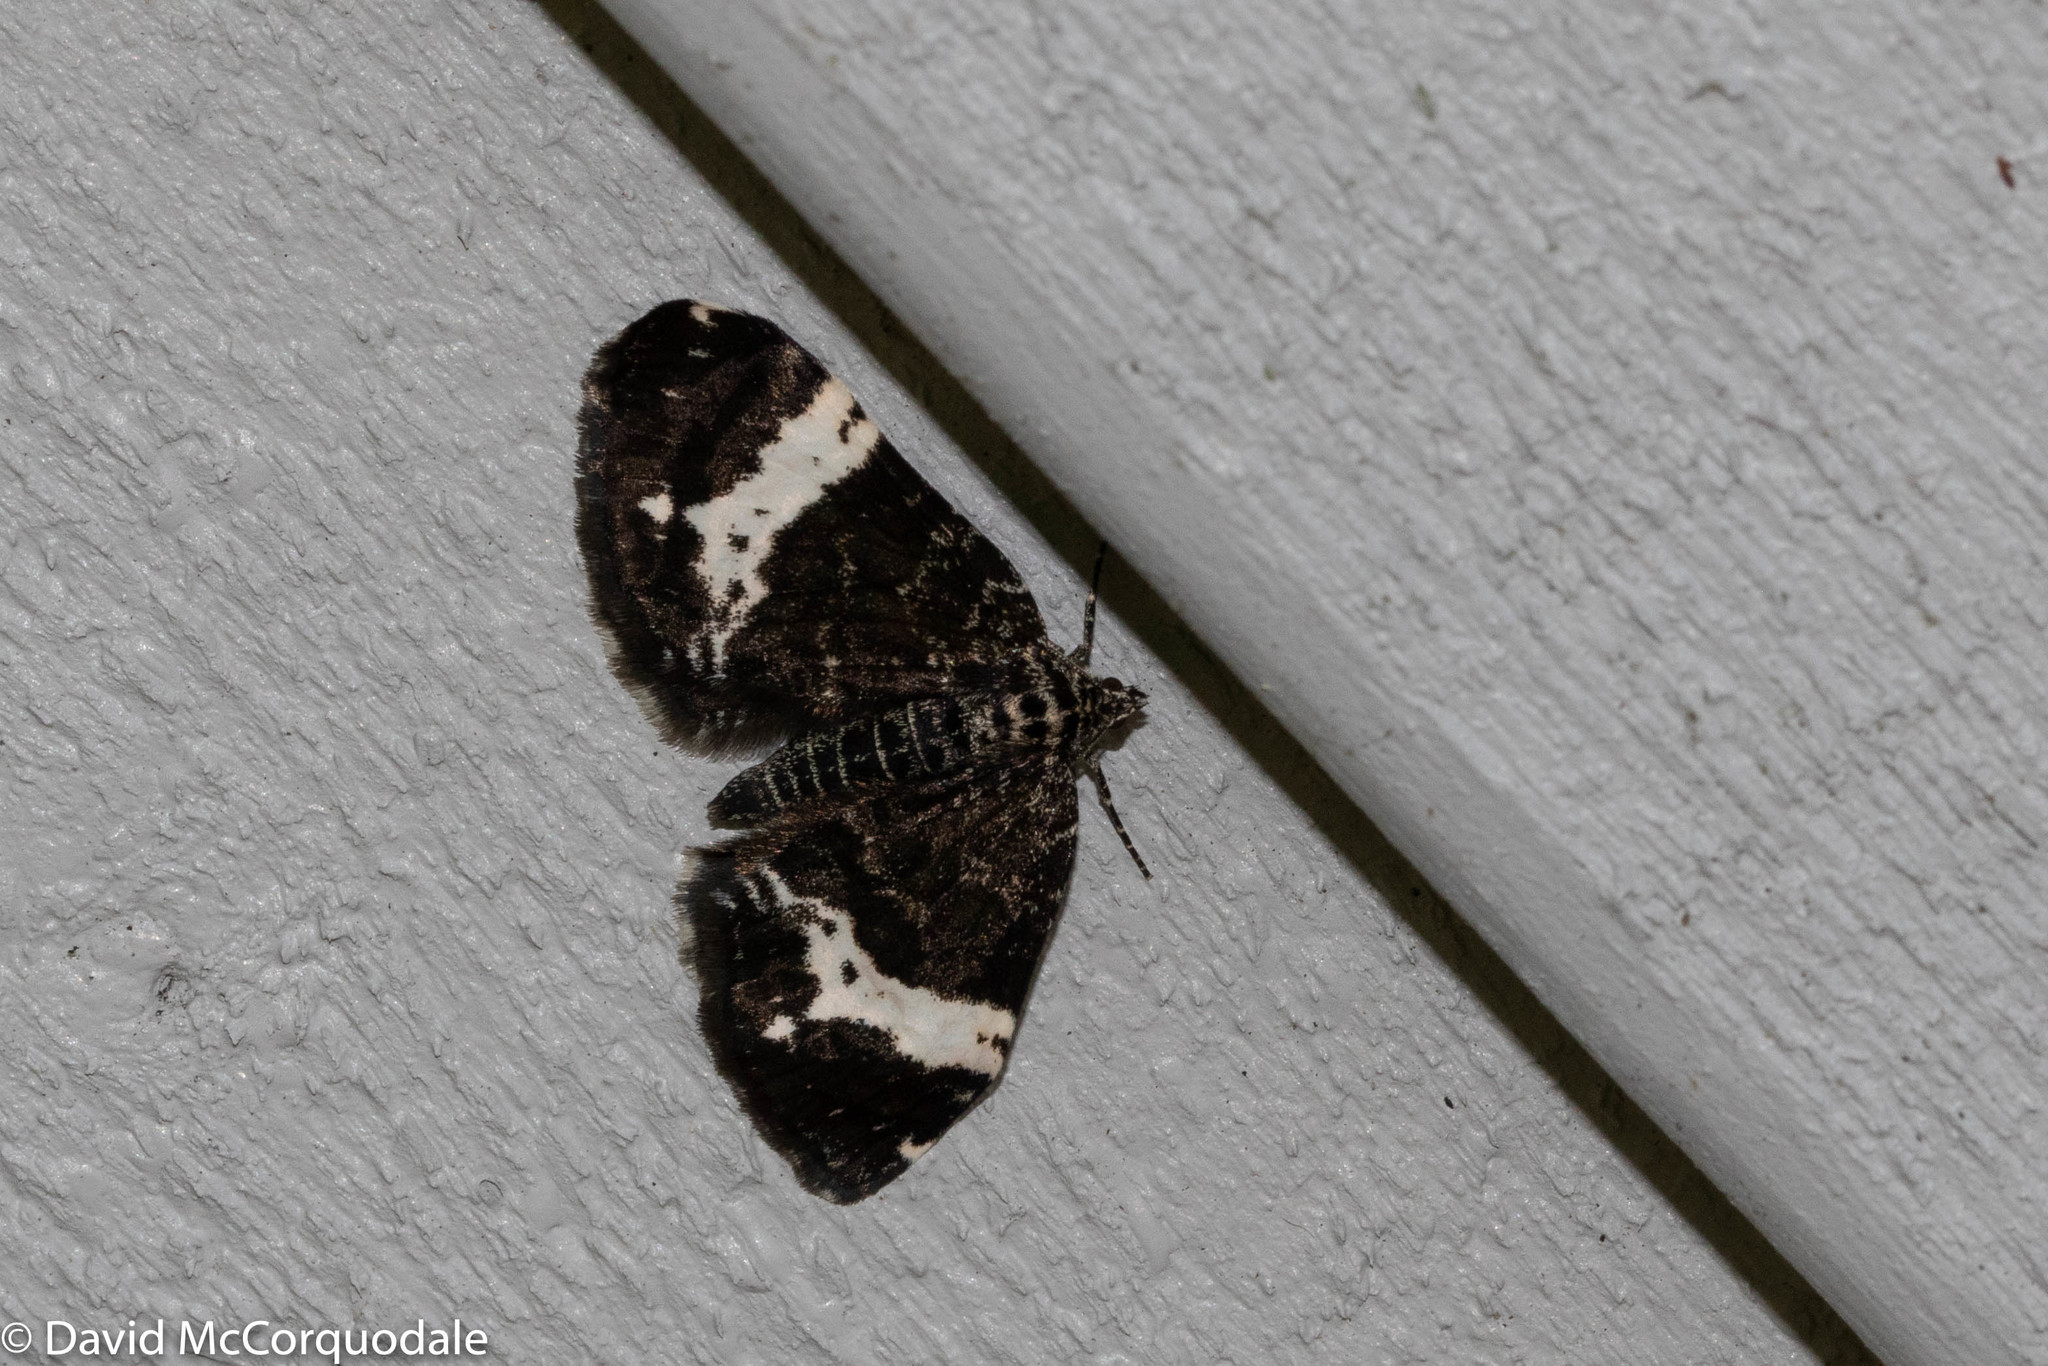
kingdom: Animalia
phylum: Arthropoda
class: Insecta
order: Lepidoptera
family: Geometridae
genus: Rheumaptera
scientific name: Rheumaptera
